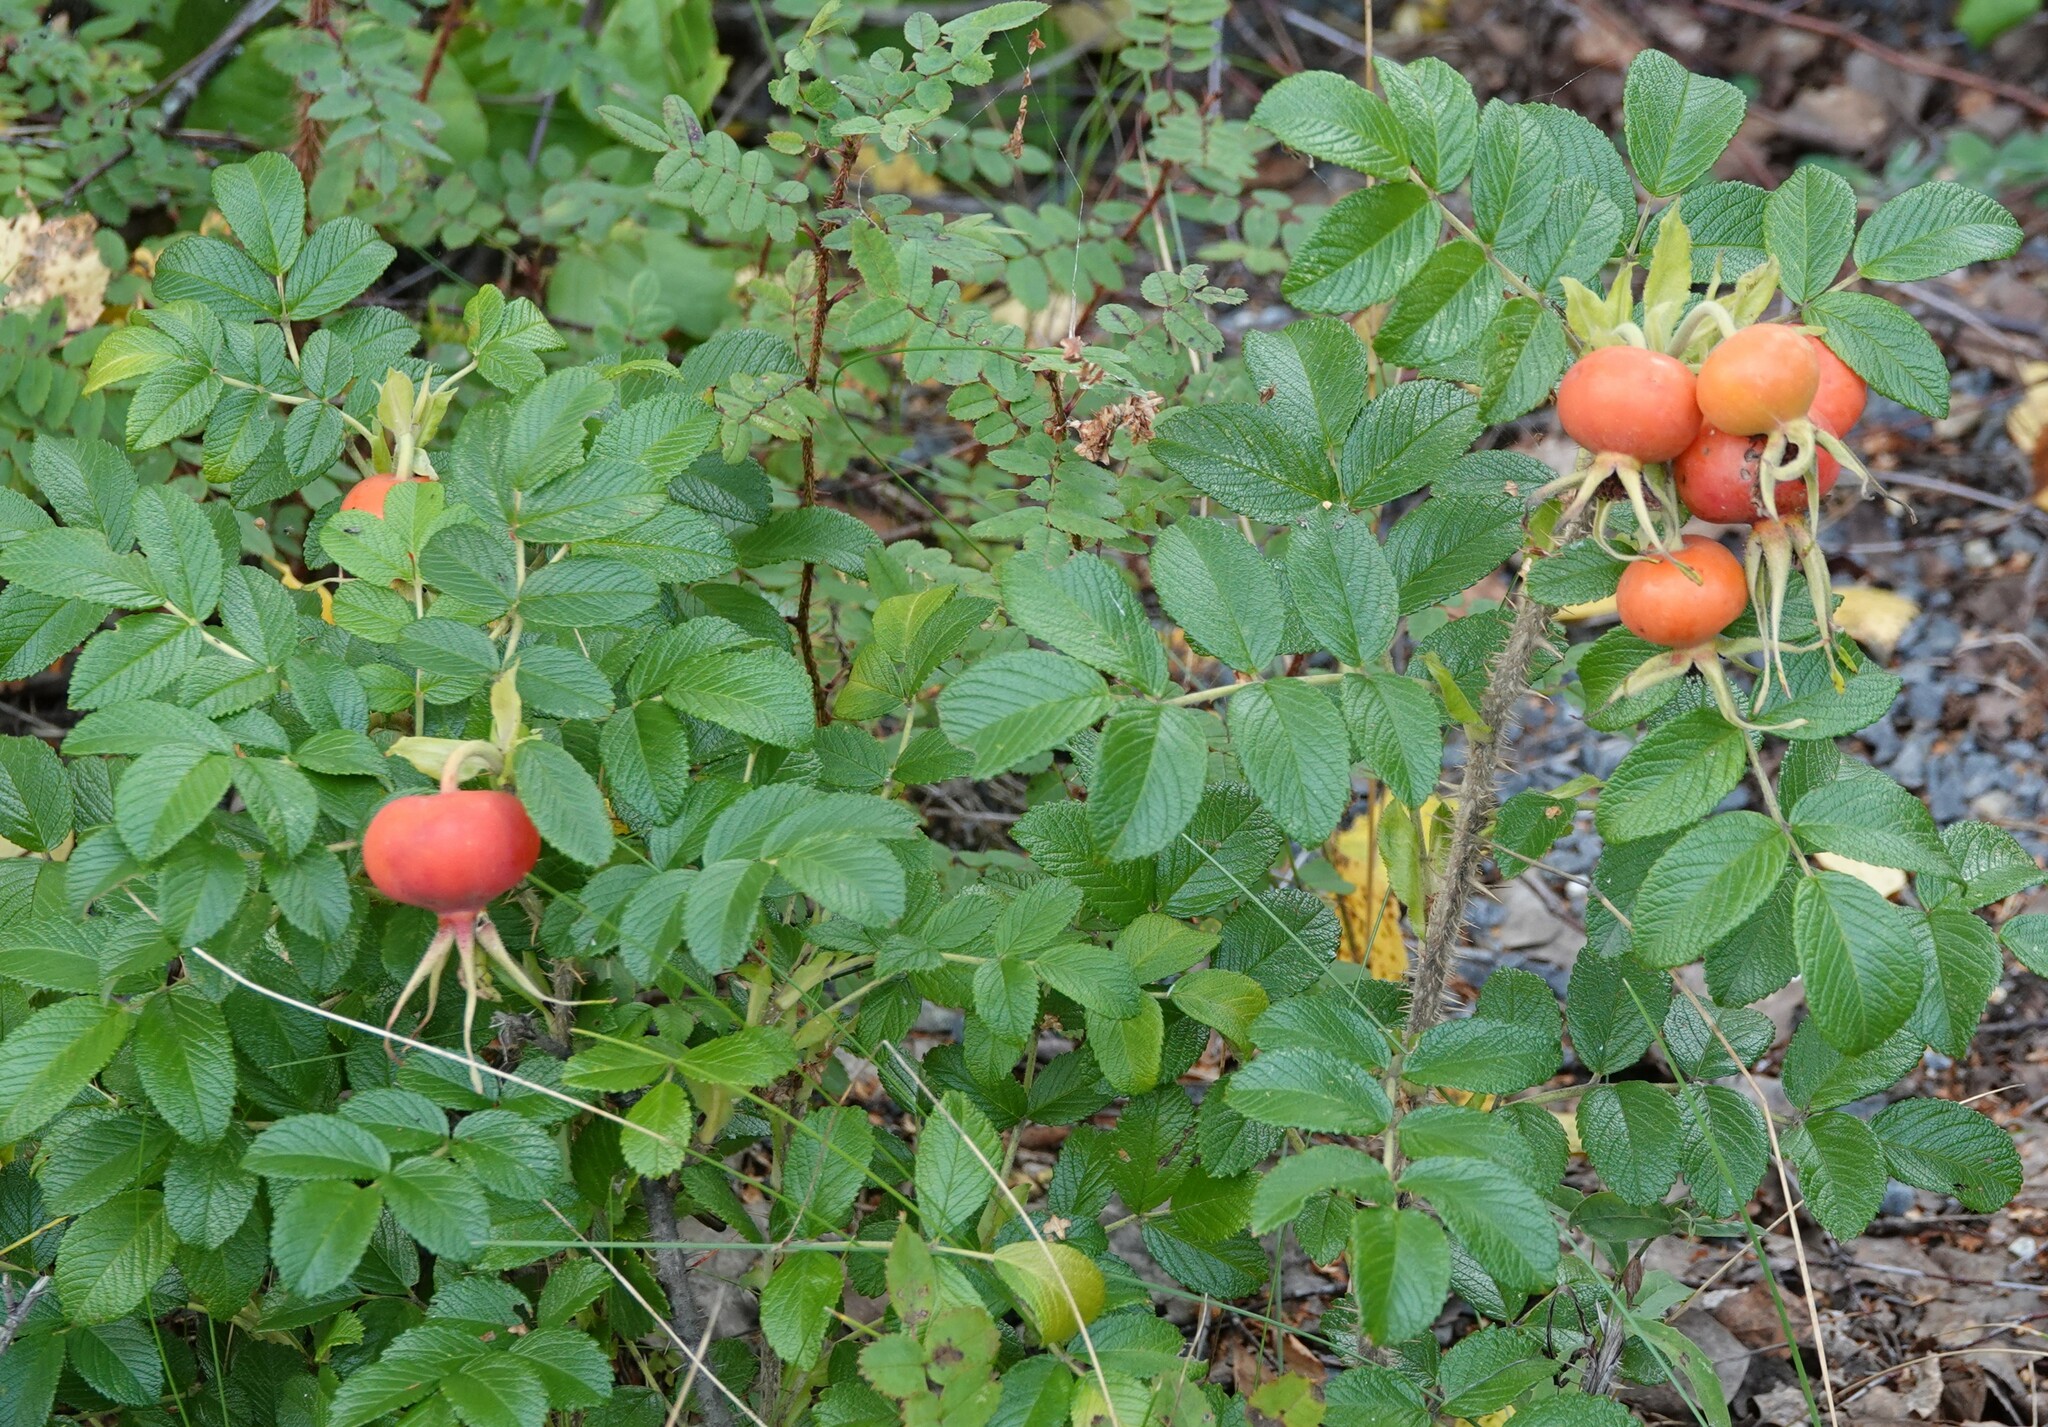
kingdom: Plantae
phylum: Tracheophyta
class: Magnoliopsida
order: Rosales
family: Rosaceae
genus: Rosa
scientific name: Rosa rugosa
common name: Japanese rose
